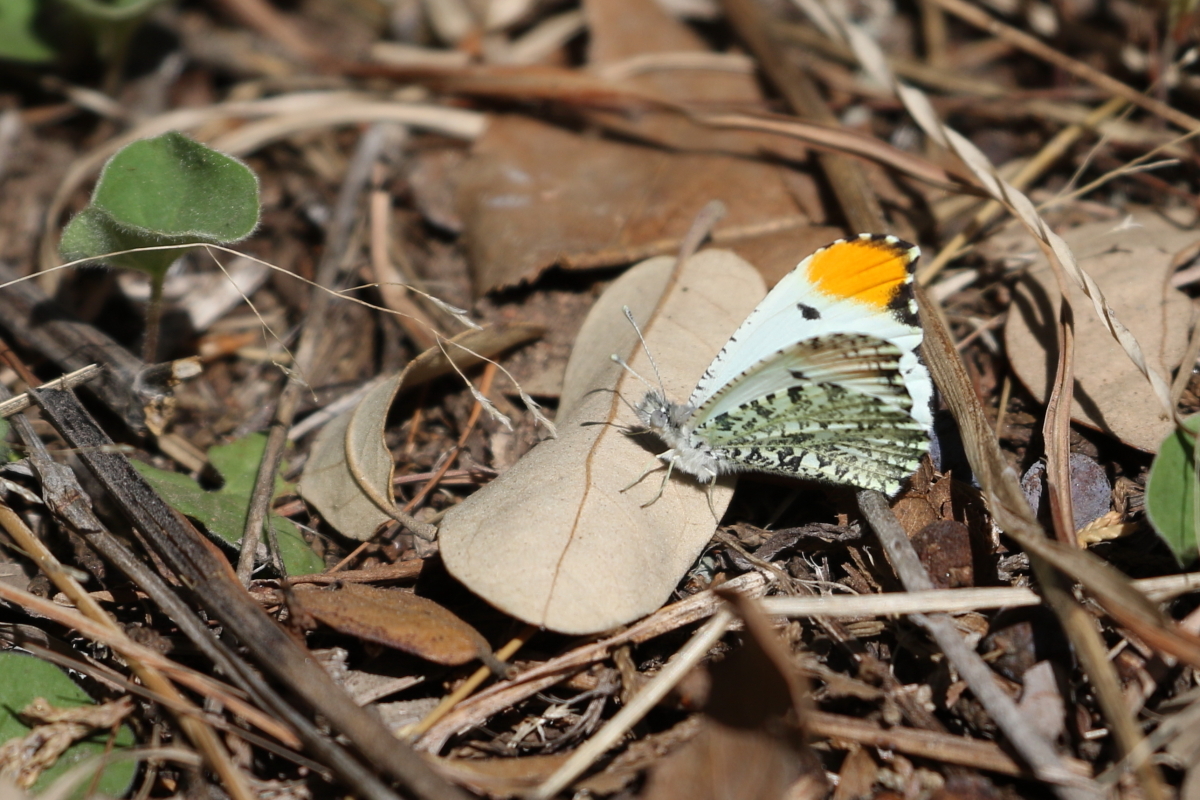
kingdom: Animalia
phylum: Arthropoda
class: Insecta
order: Lepidoptera
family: Pieridae
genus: Anthocharis
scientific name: Anthocharis midea
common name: Falcate orangetip
